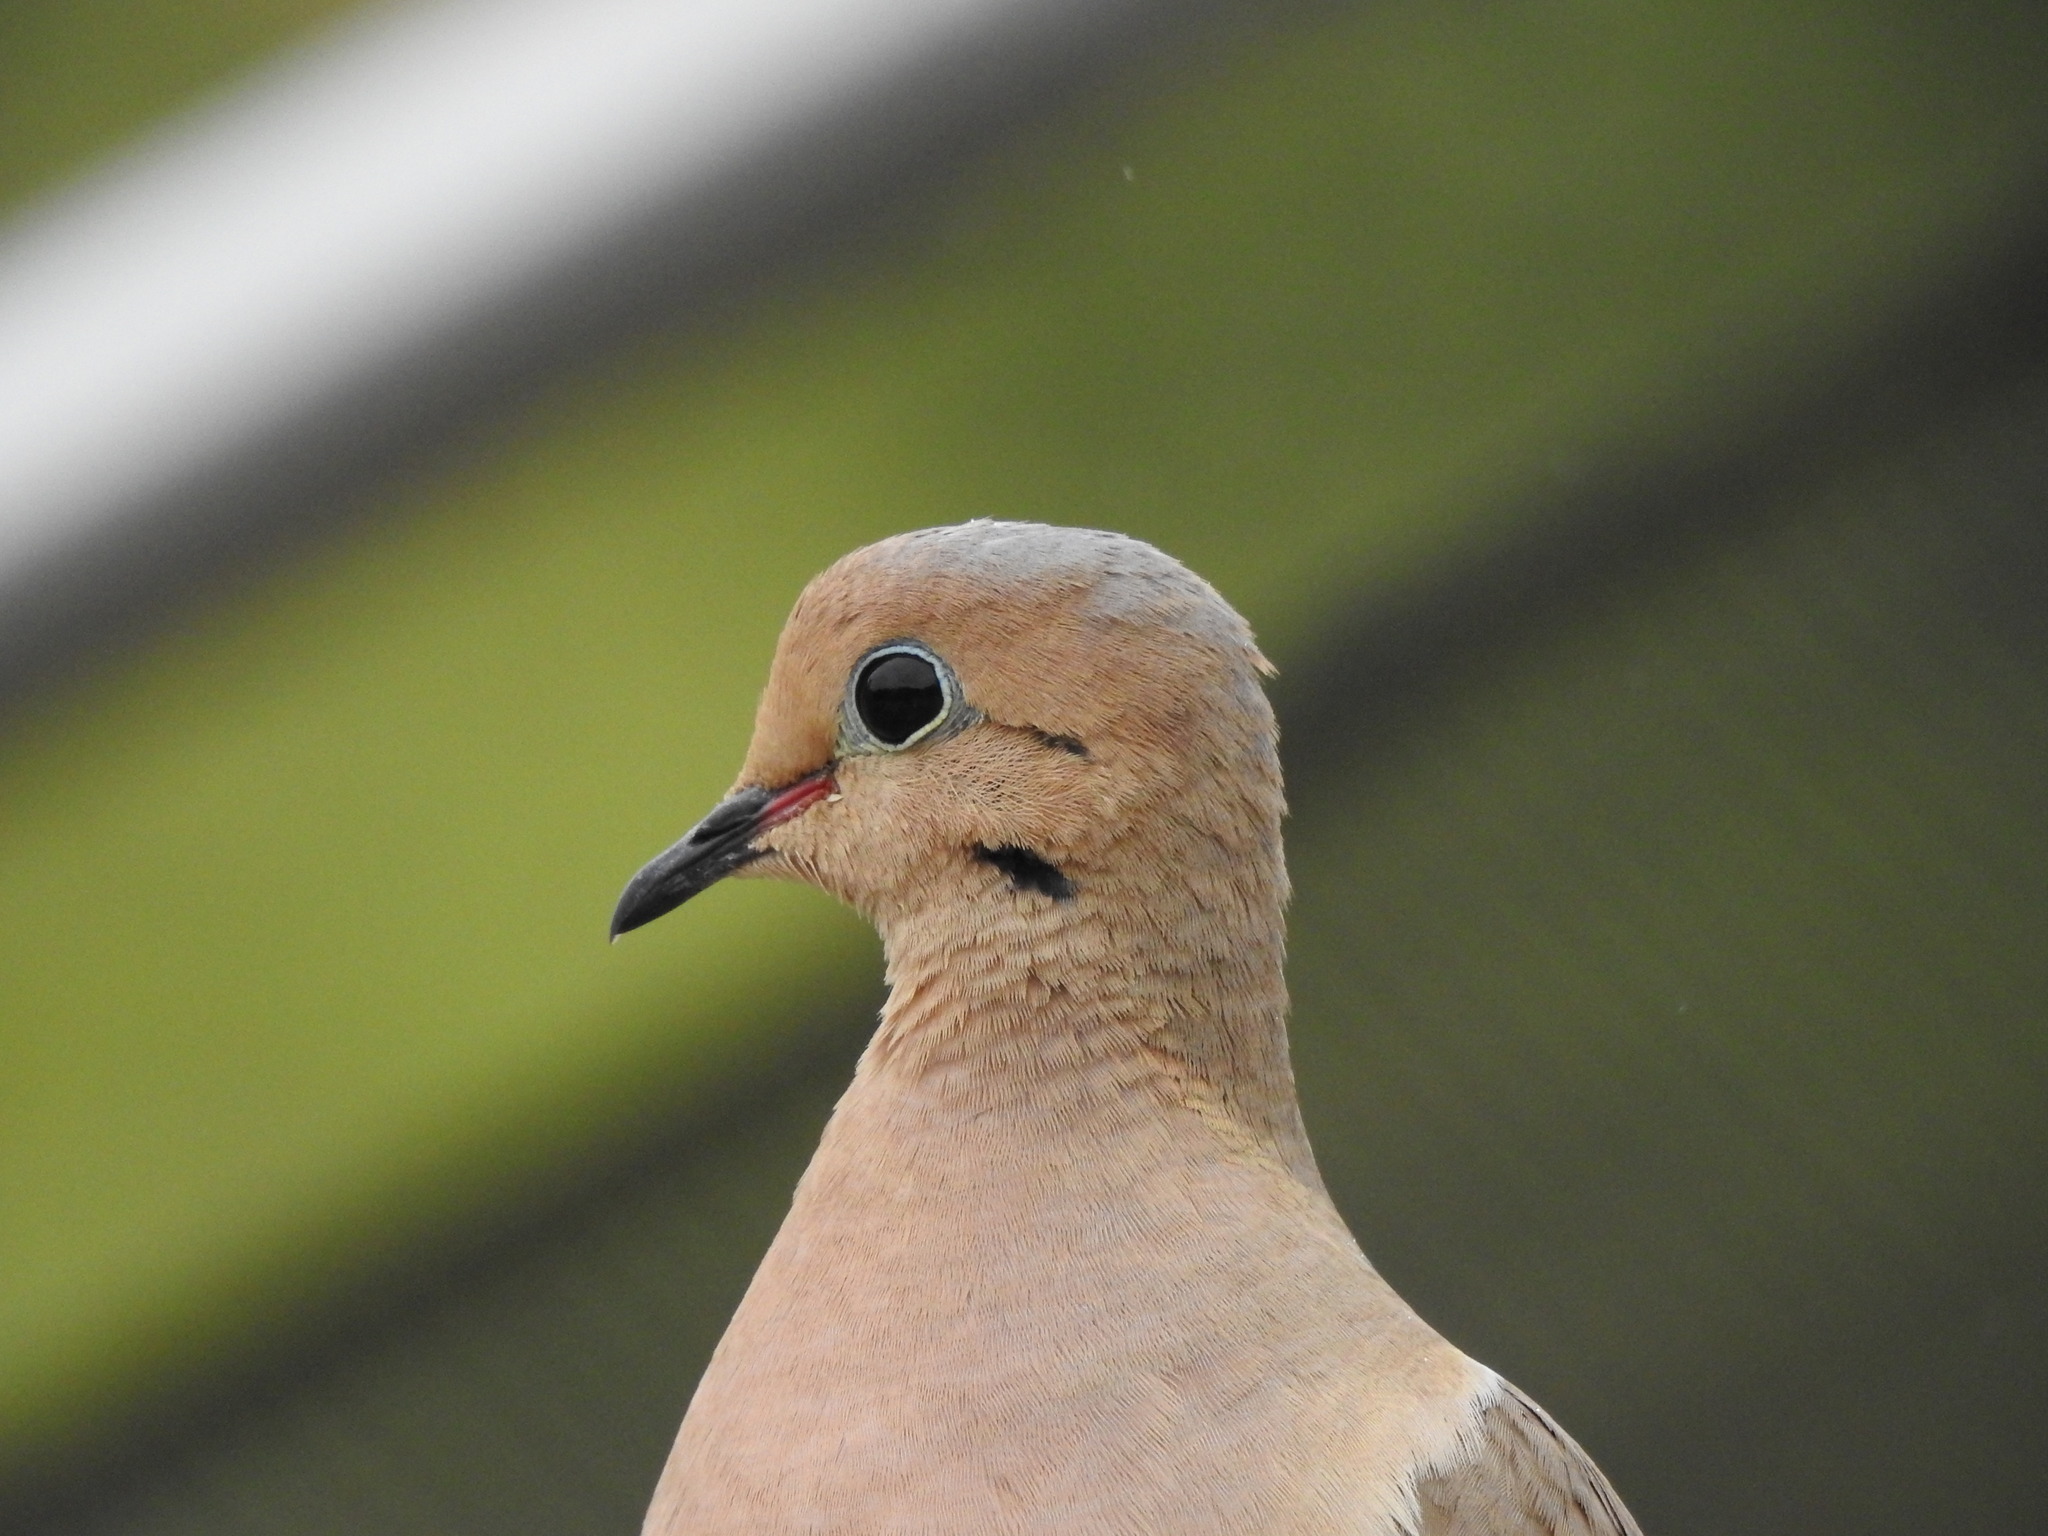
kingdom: Animalia
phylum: Chordata
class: Aves
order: Columbiformes
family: Columbidae
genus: Zenaida
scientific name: Zenaida macroura
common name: Mourning dove
